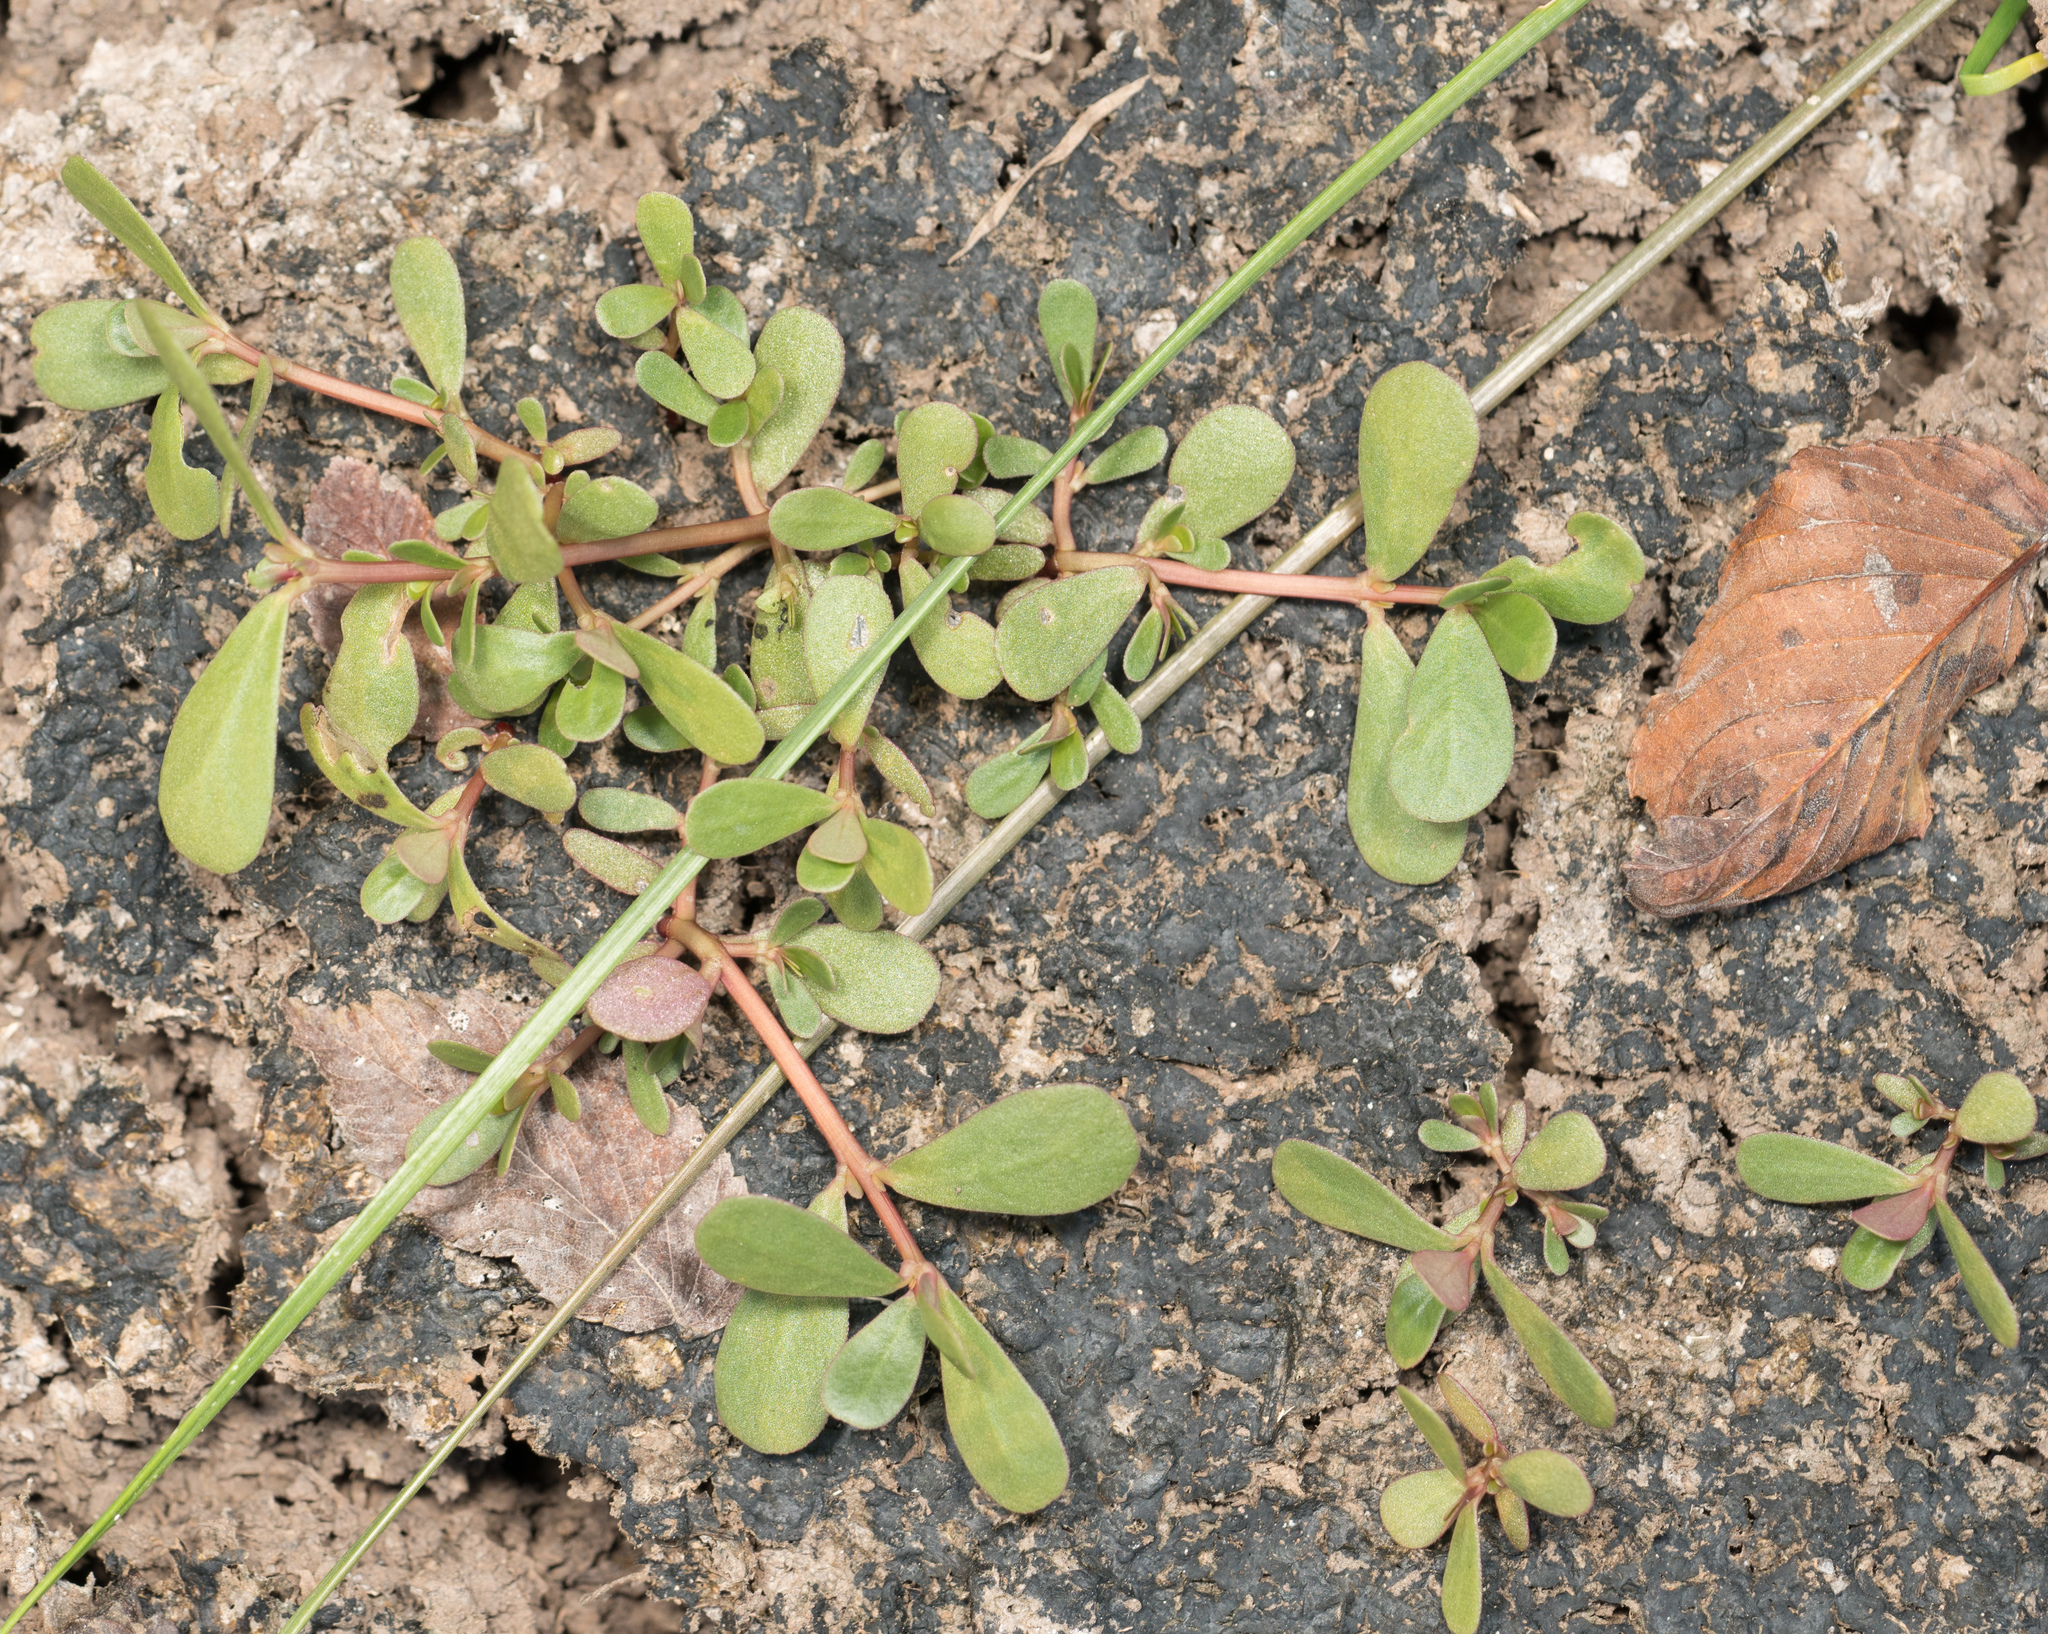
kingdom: Plantae
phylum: Tracheophyta
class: Magnoliopsida
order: Caryophyllales
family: Portulacaceae
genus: Portulaca
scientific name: Portulaca oleracea
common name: Common purslane
